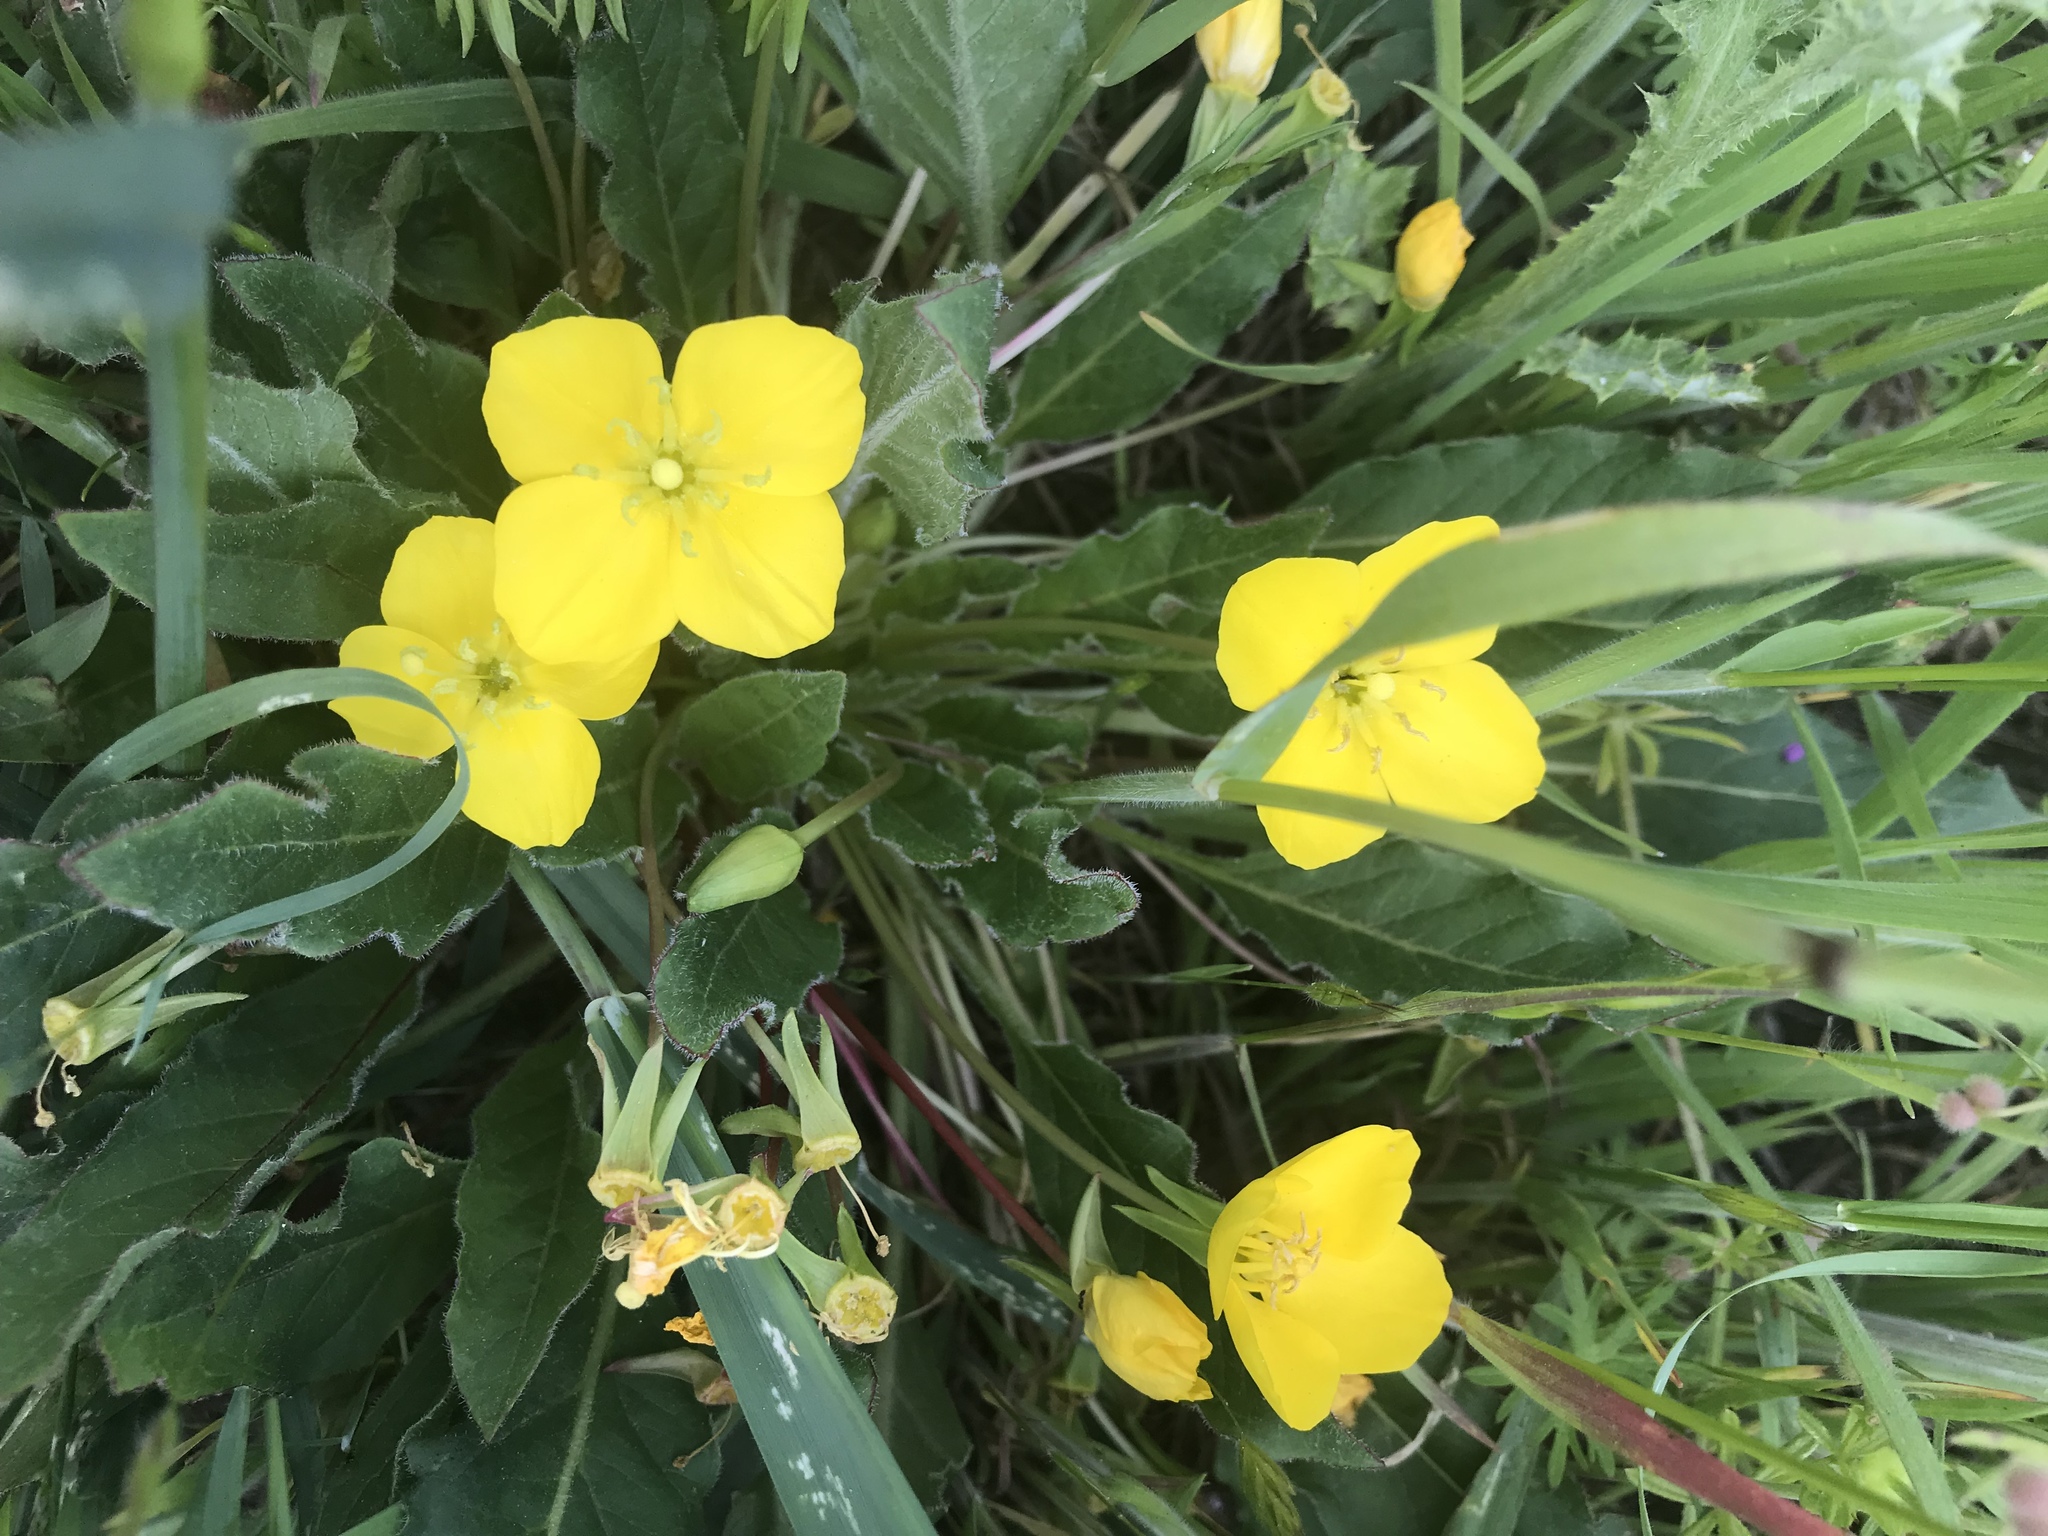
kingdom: Plantae
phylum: Tracheophyta
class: Magnoliopsida
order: Myrtales
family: Onagraceae
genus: Taraxia
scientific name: Taraxia ovata
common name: Goldeneggs
